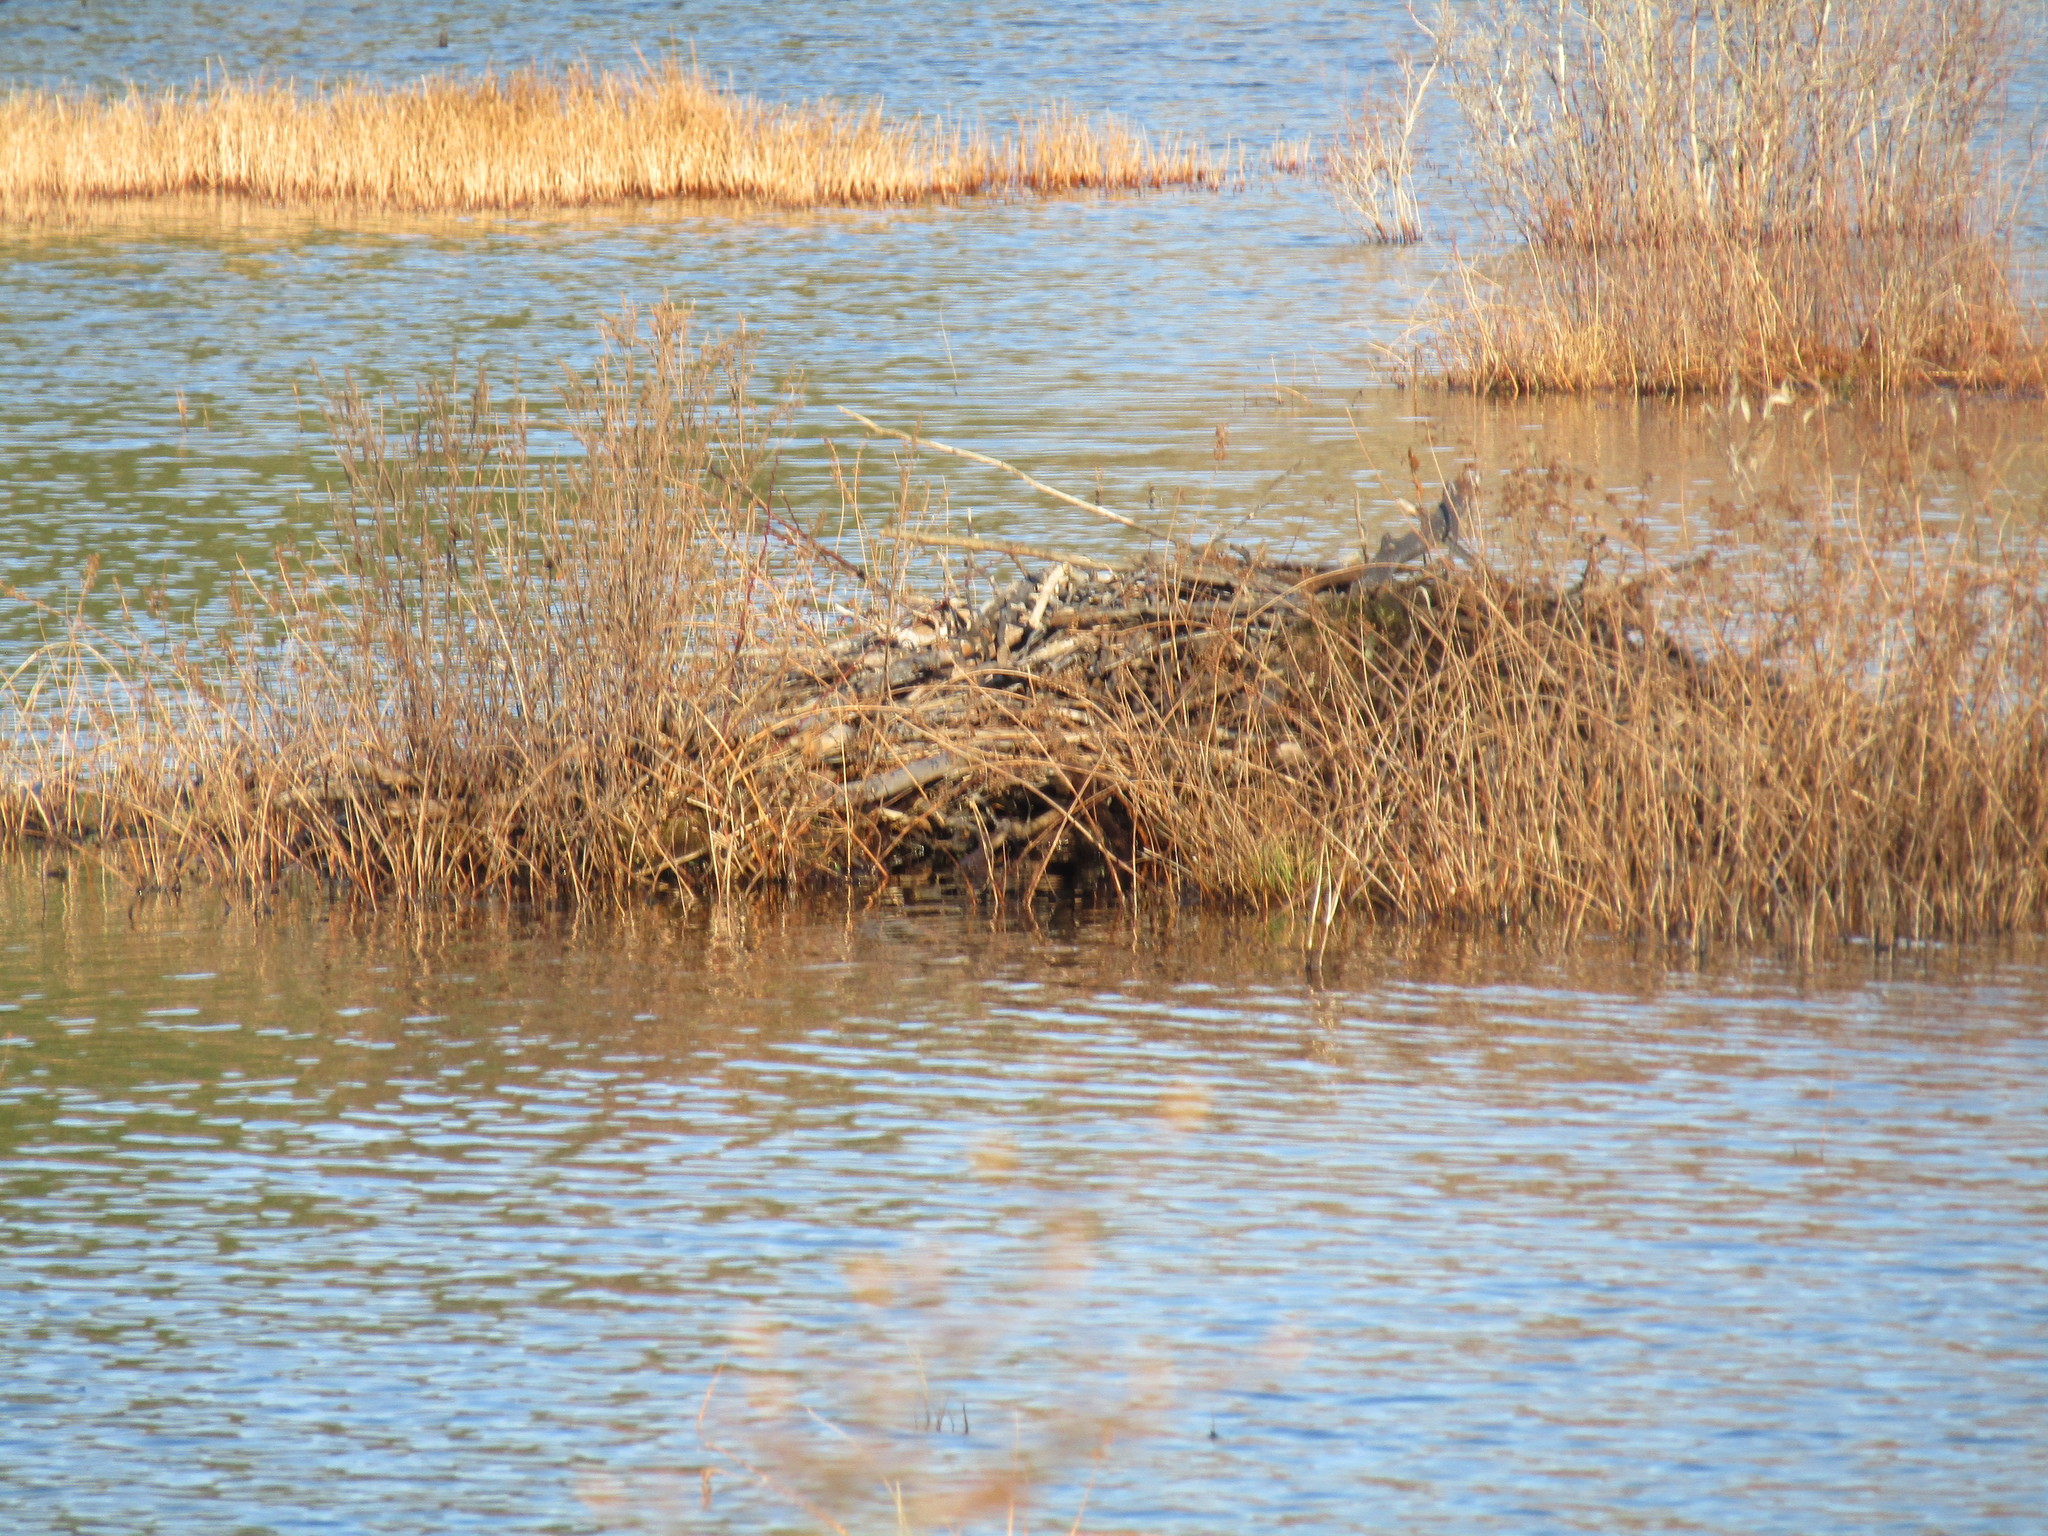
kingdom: Animalia
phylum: Chordata
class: Mammalia
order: Rodentia
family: Castoridae
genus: Castor
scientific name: Castor canadensis
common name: American beaver
